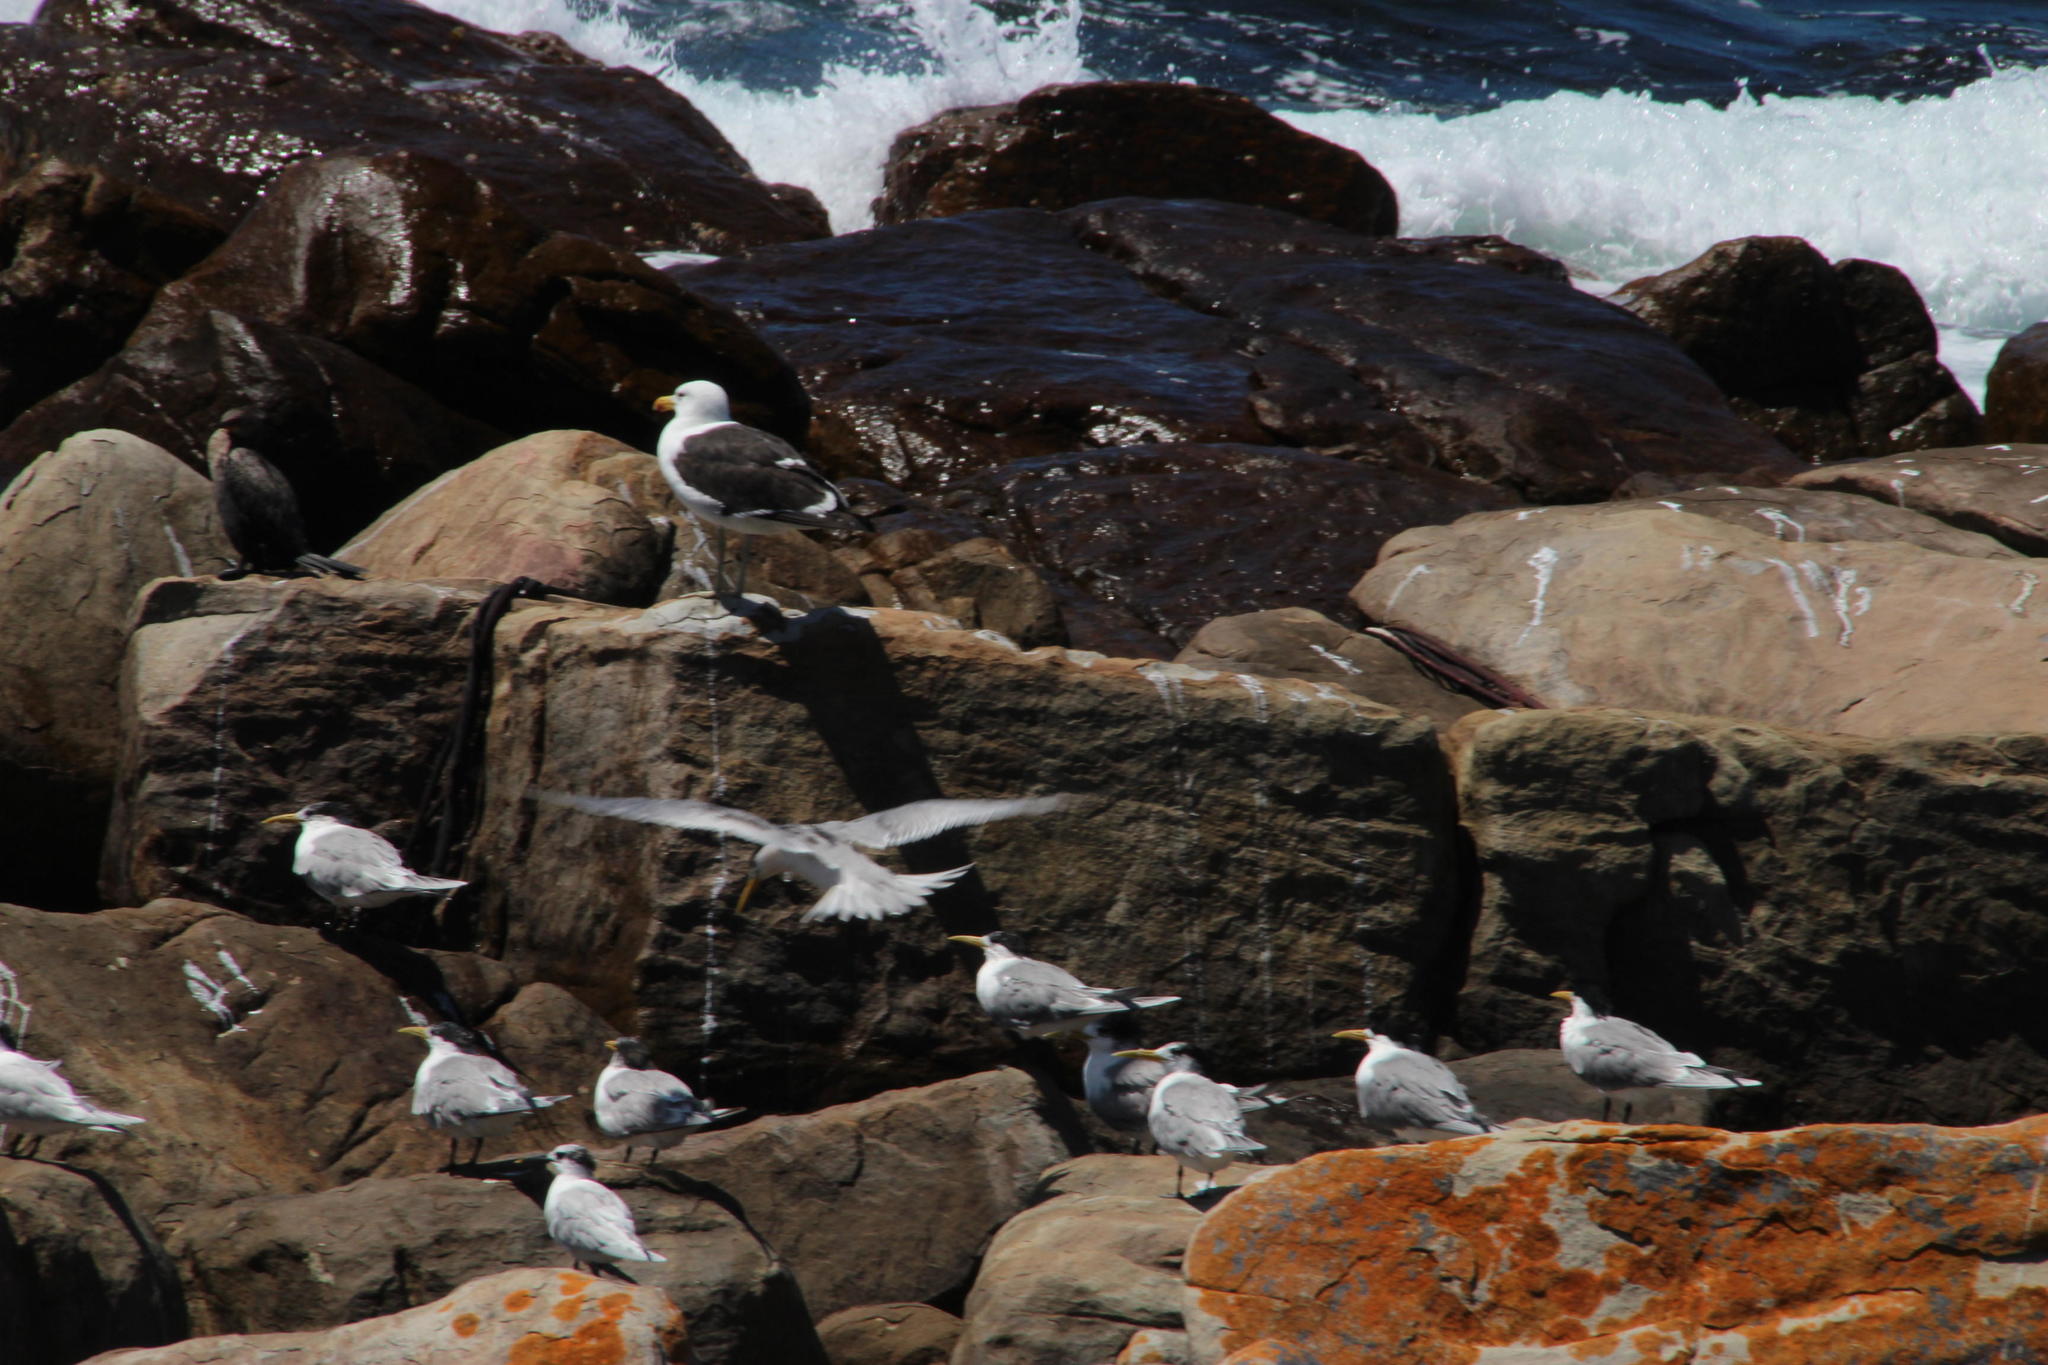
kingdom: Animalia
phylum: Chordata
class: Aves
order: Charadriiformes
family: Laridae
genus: Larus
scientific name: Larus dominicanus
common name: Kelp gull
